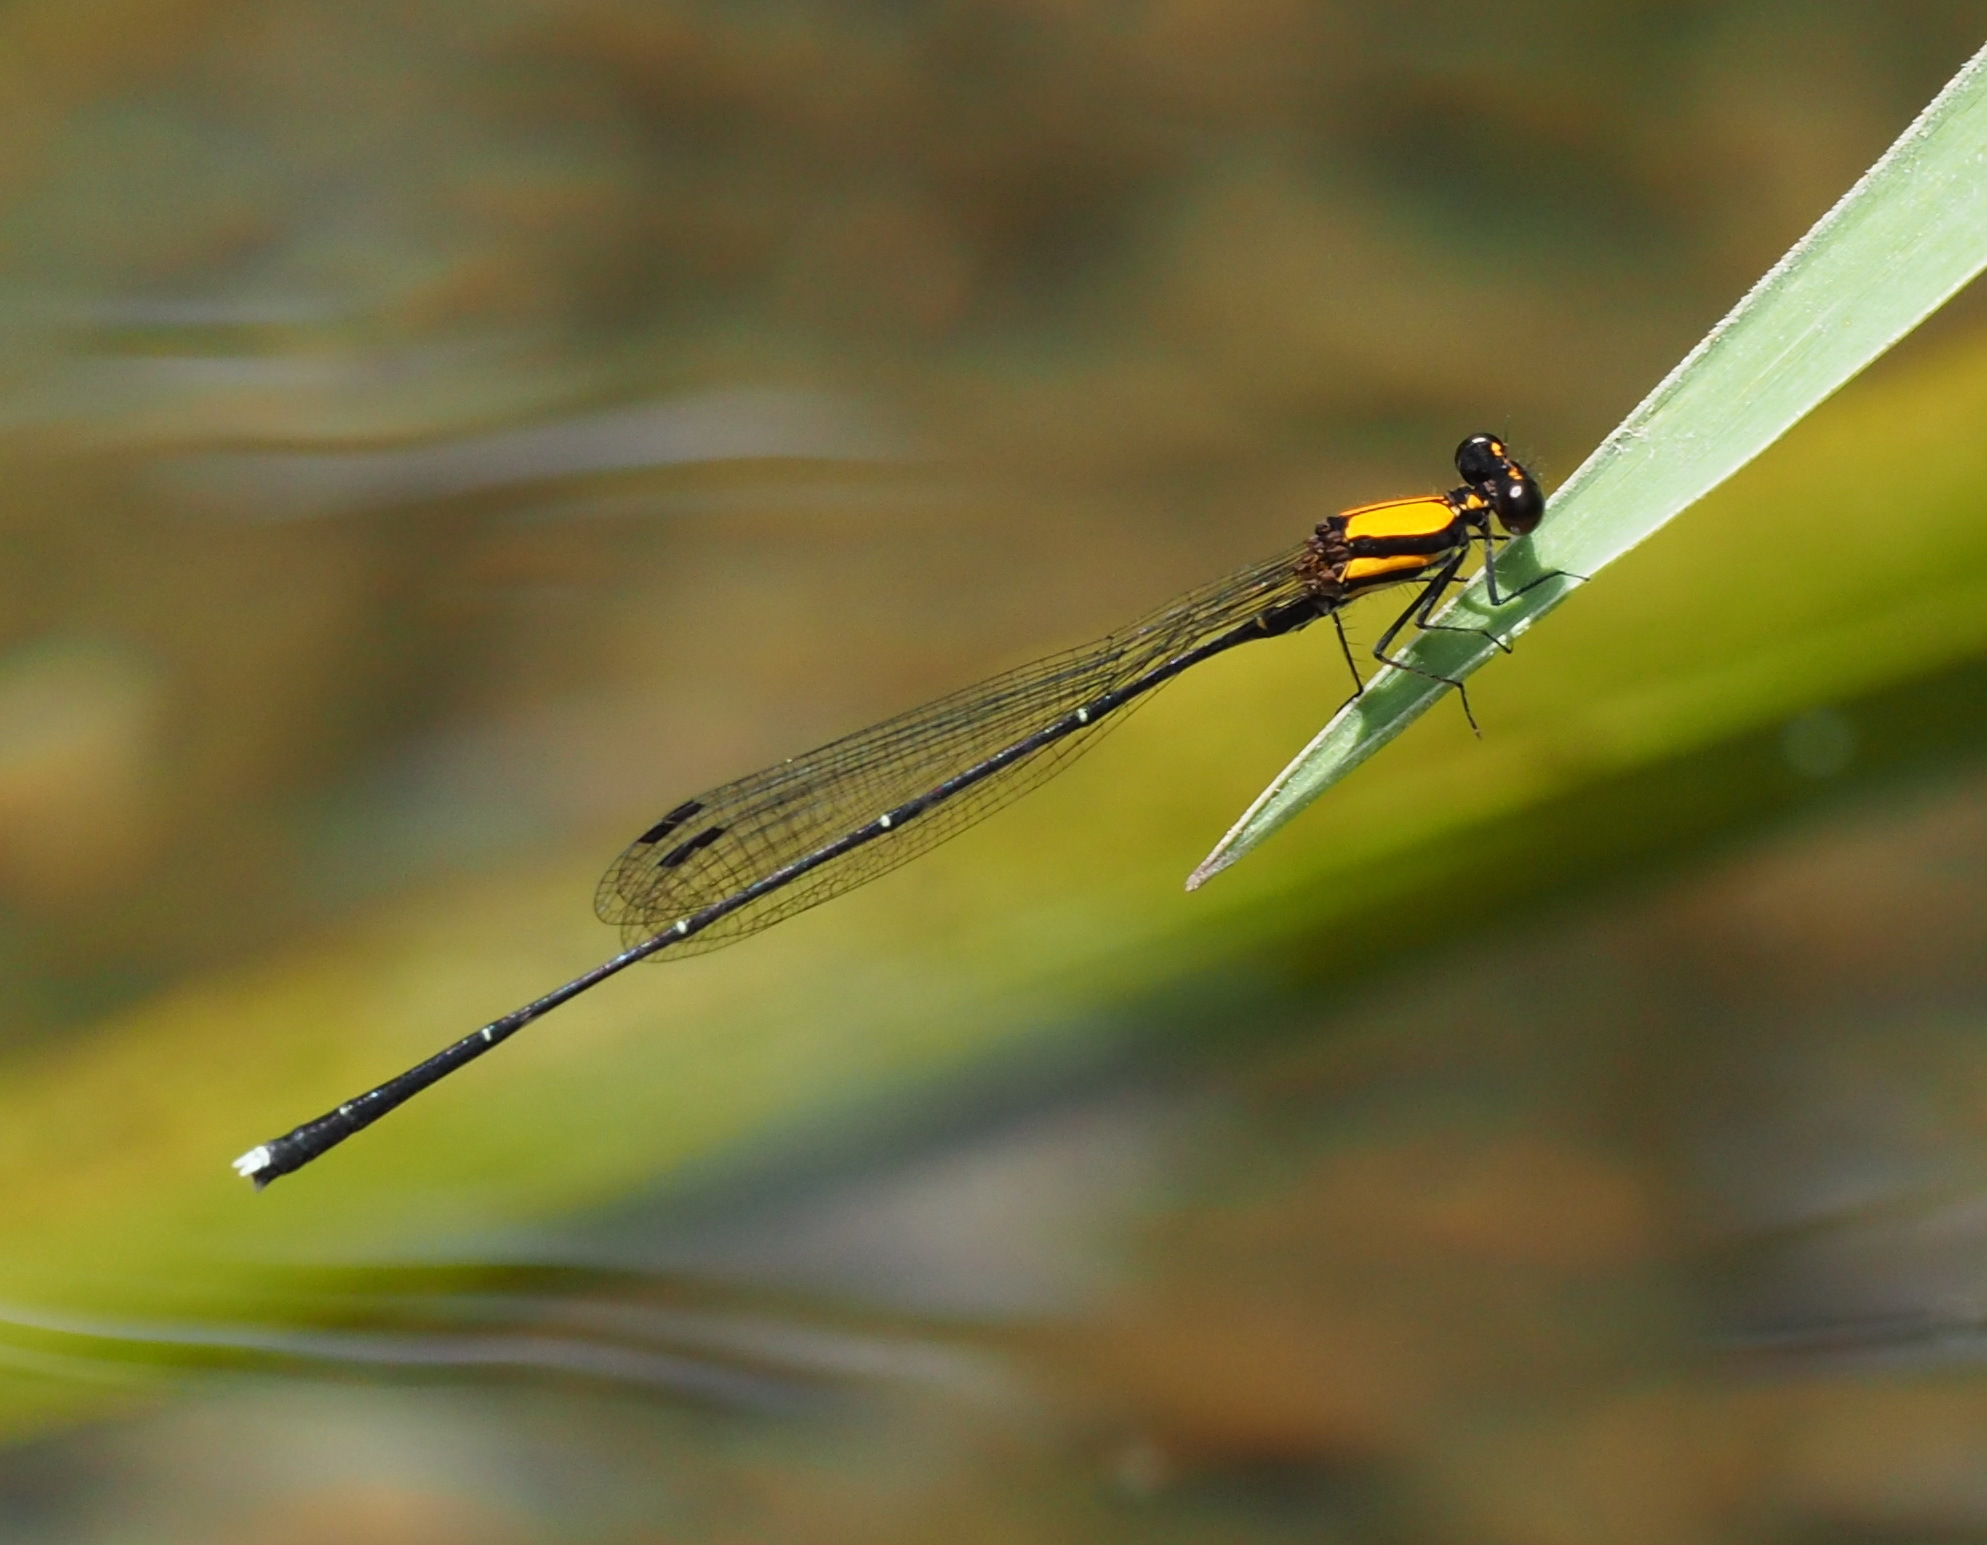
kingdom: Animalia
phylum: Arthropoda
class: Insecta
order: Odonata
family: Platycnemididae
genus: Prodasineura
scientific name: Prodasineura croconota
